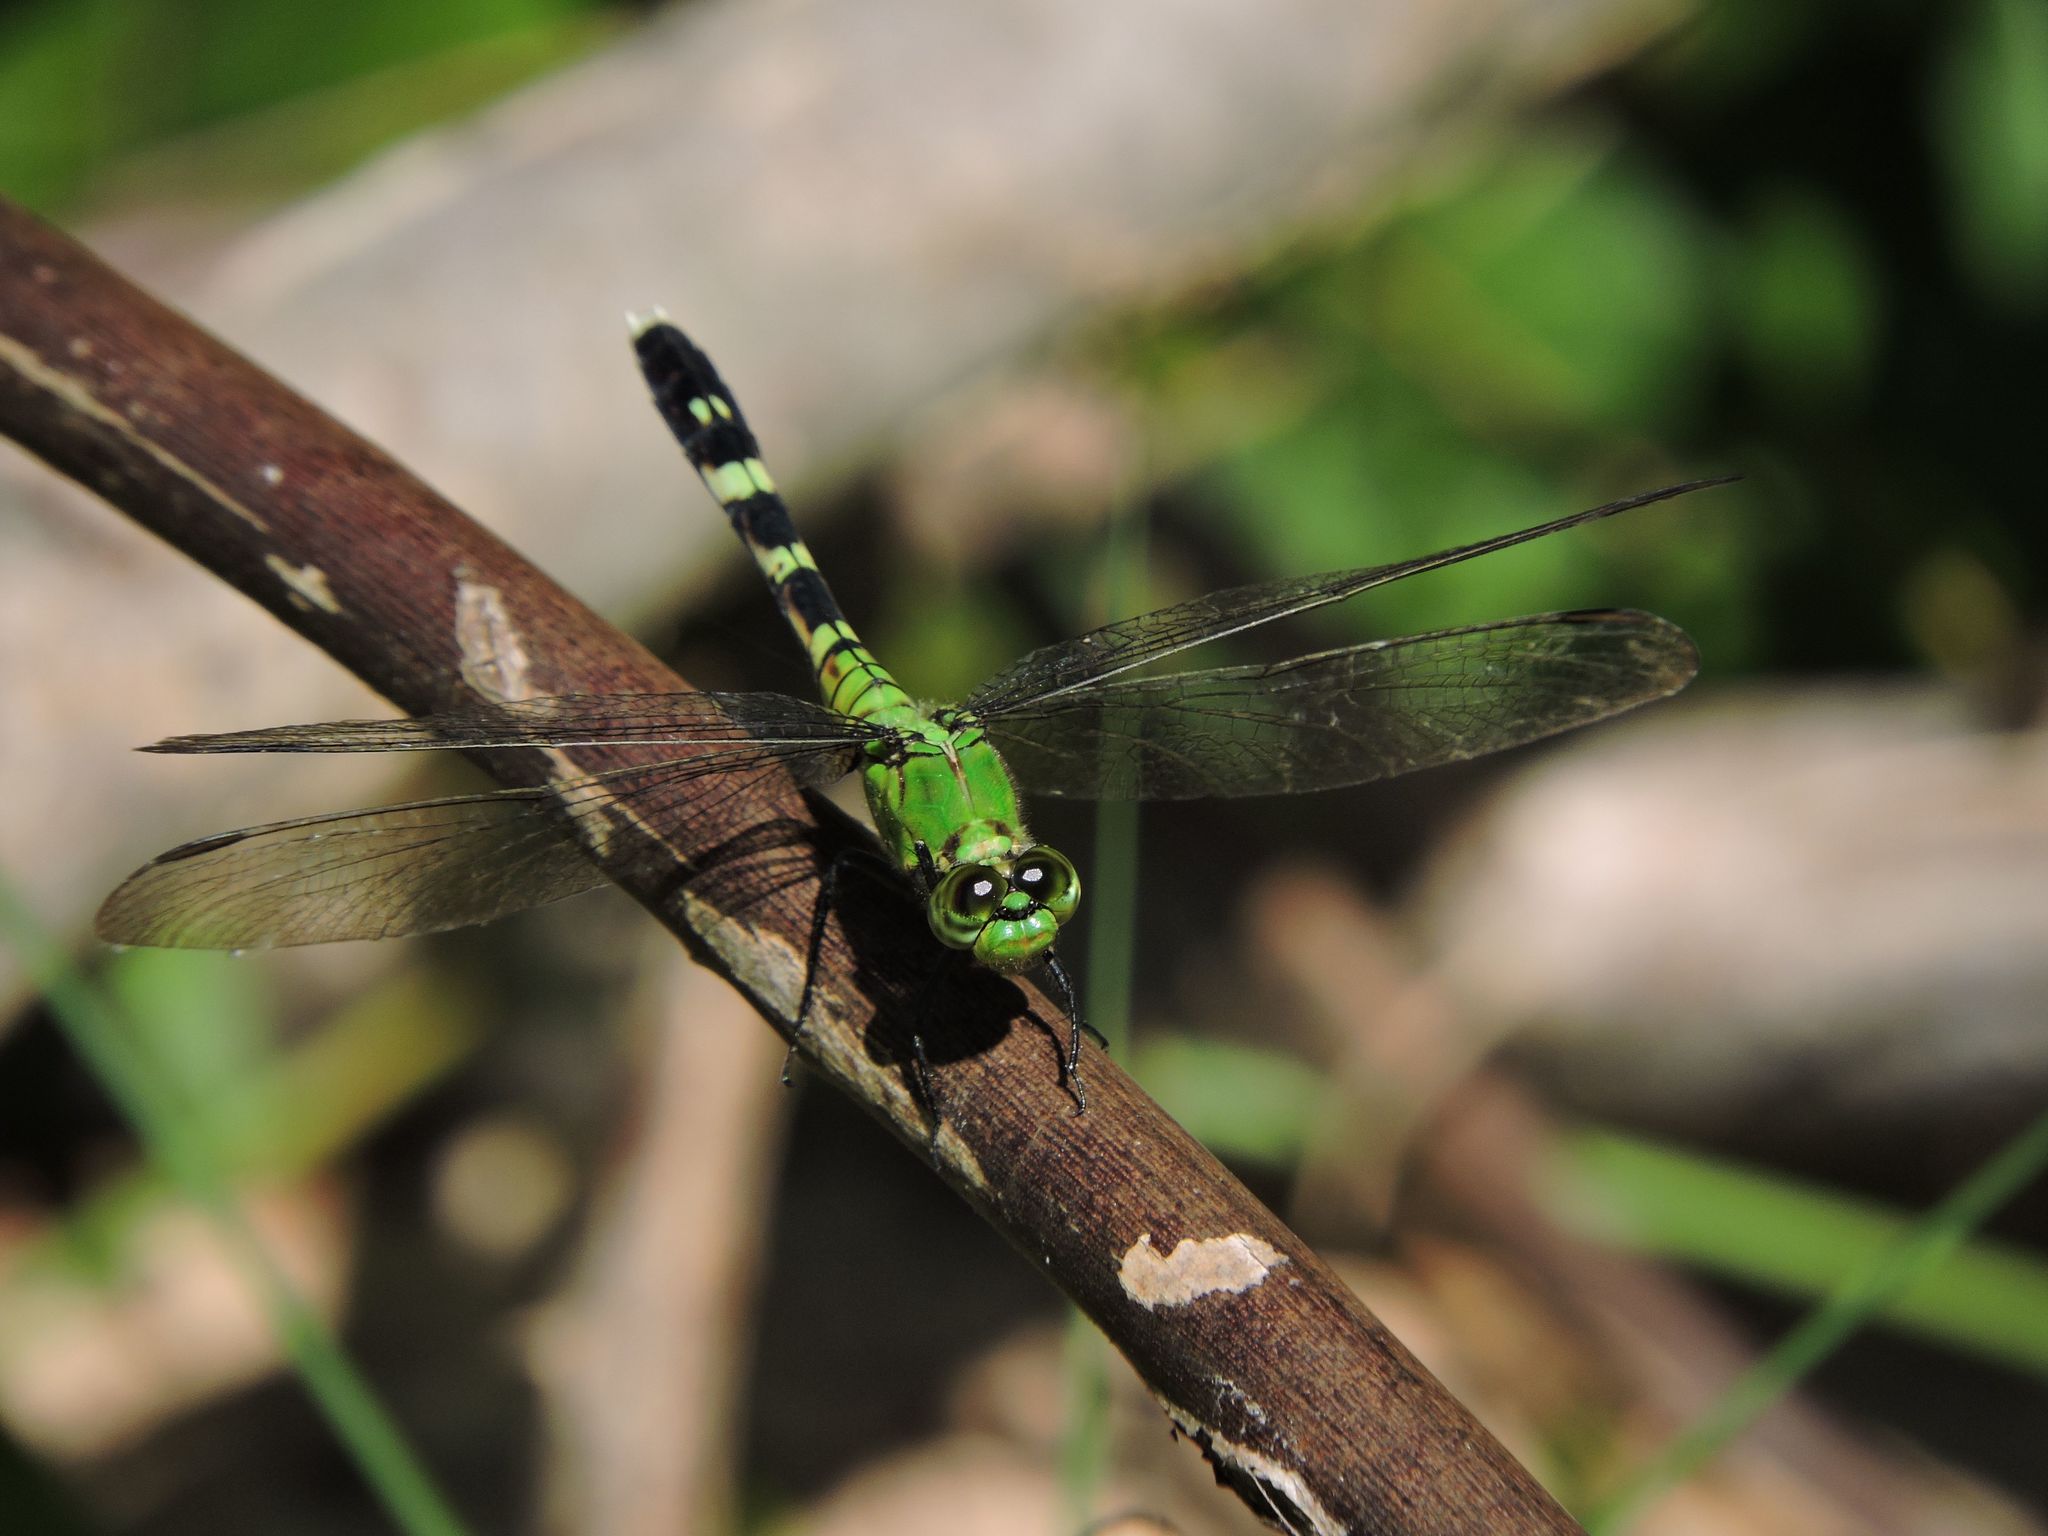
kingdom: Animalia
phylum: Arthropoda
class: Insecta
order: Odonata
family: Libellulidae
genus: Erythemis
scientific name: Erythemis simplicicollis
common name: Eastern pondhawk
